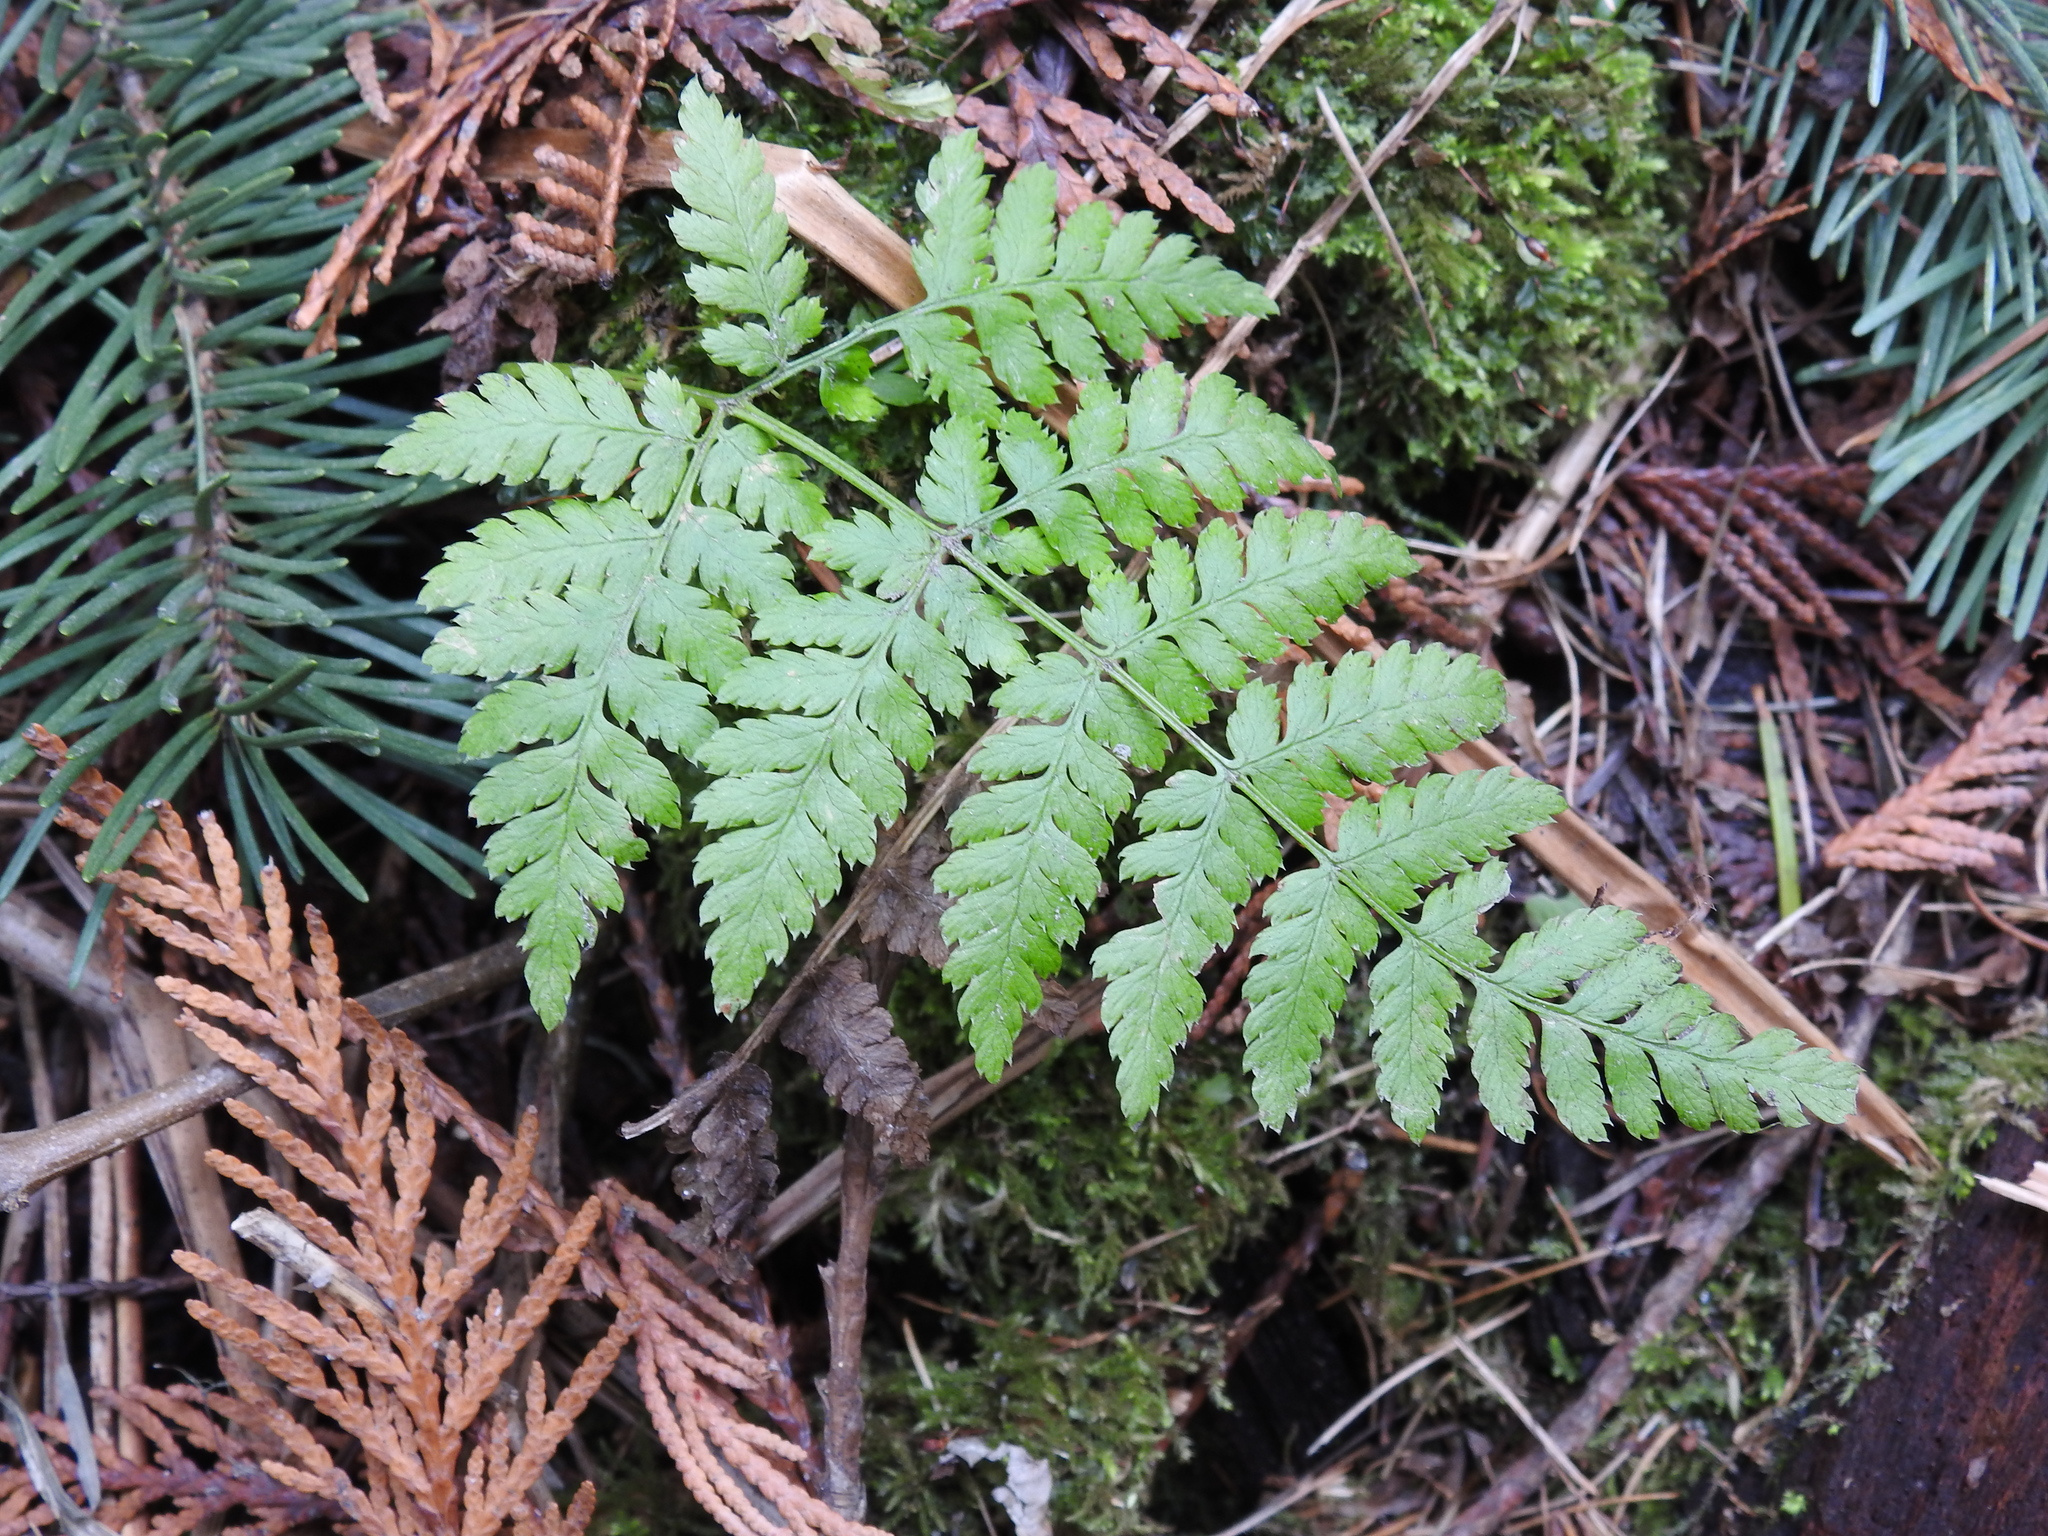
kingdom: Plantae
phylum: Tracheophyta
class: Polypodiopsida
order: Polypodiales
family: Dryopteridaceae
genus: Dryopteris
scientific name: Dryopteris expansa
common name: Northern buckler fern
